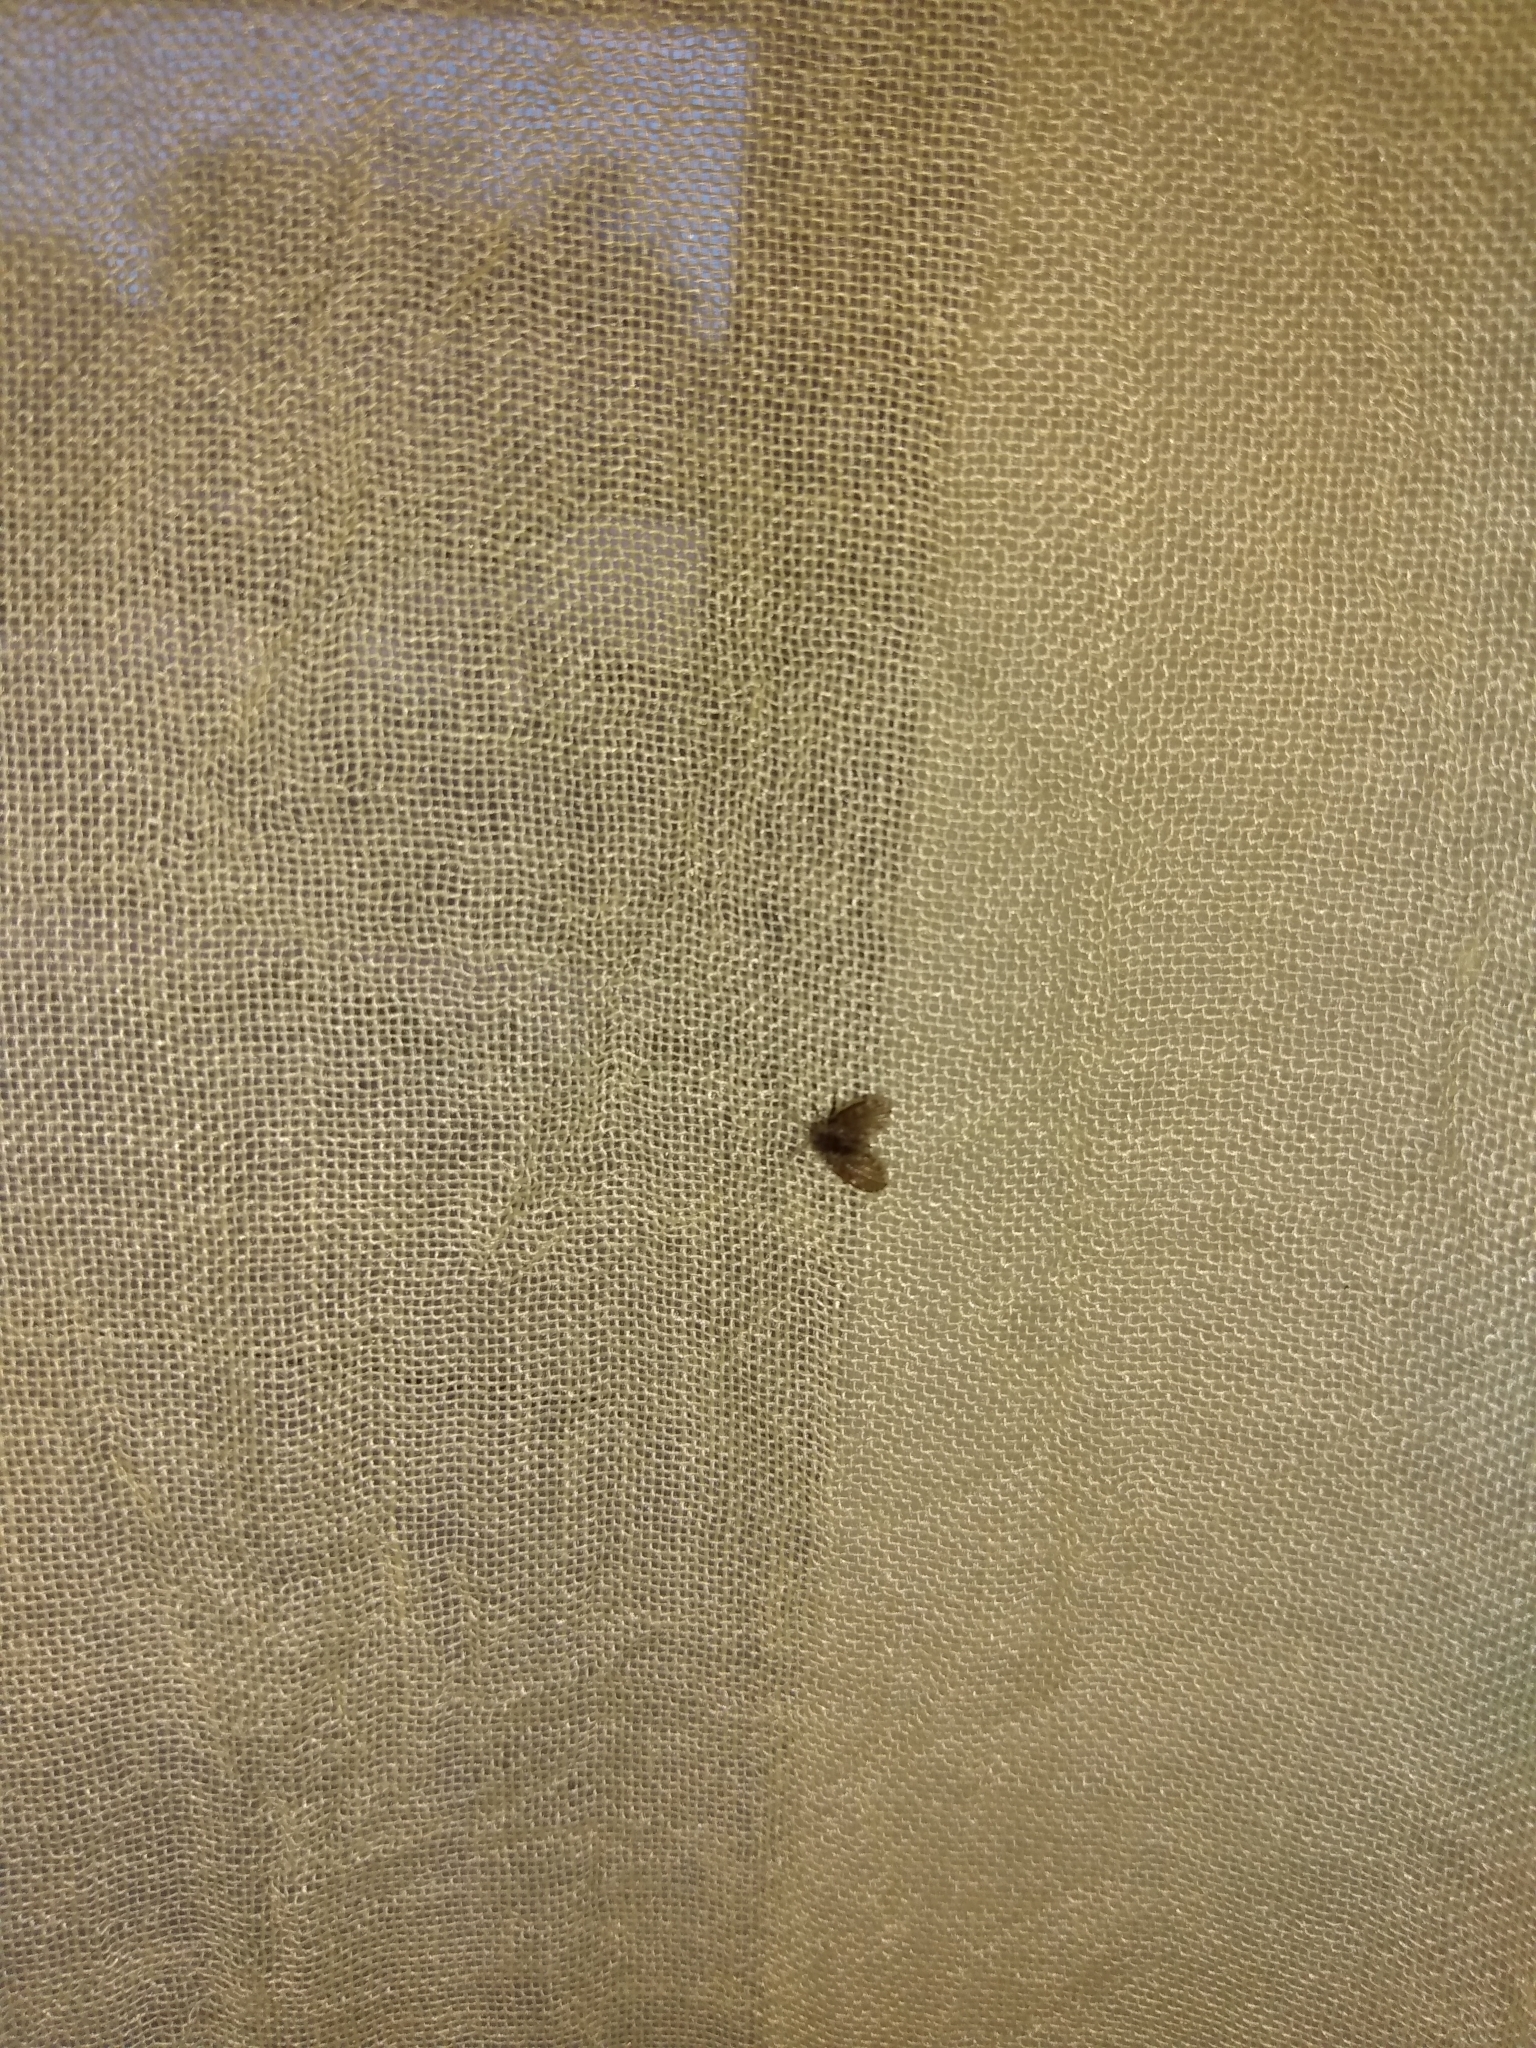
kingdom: Animalia
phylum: Arthropoda
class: Insecta
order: Diptera
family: Psychodidae
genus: Clogmia
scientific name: Clogmia albipunctatus
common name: White-spotted moth fly
